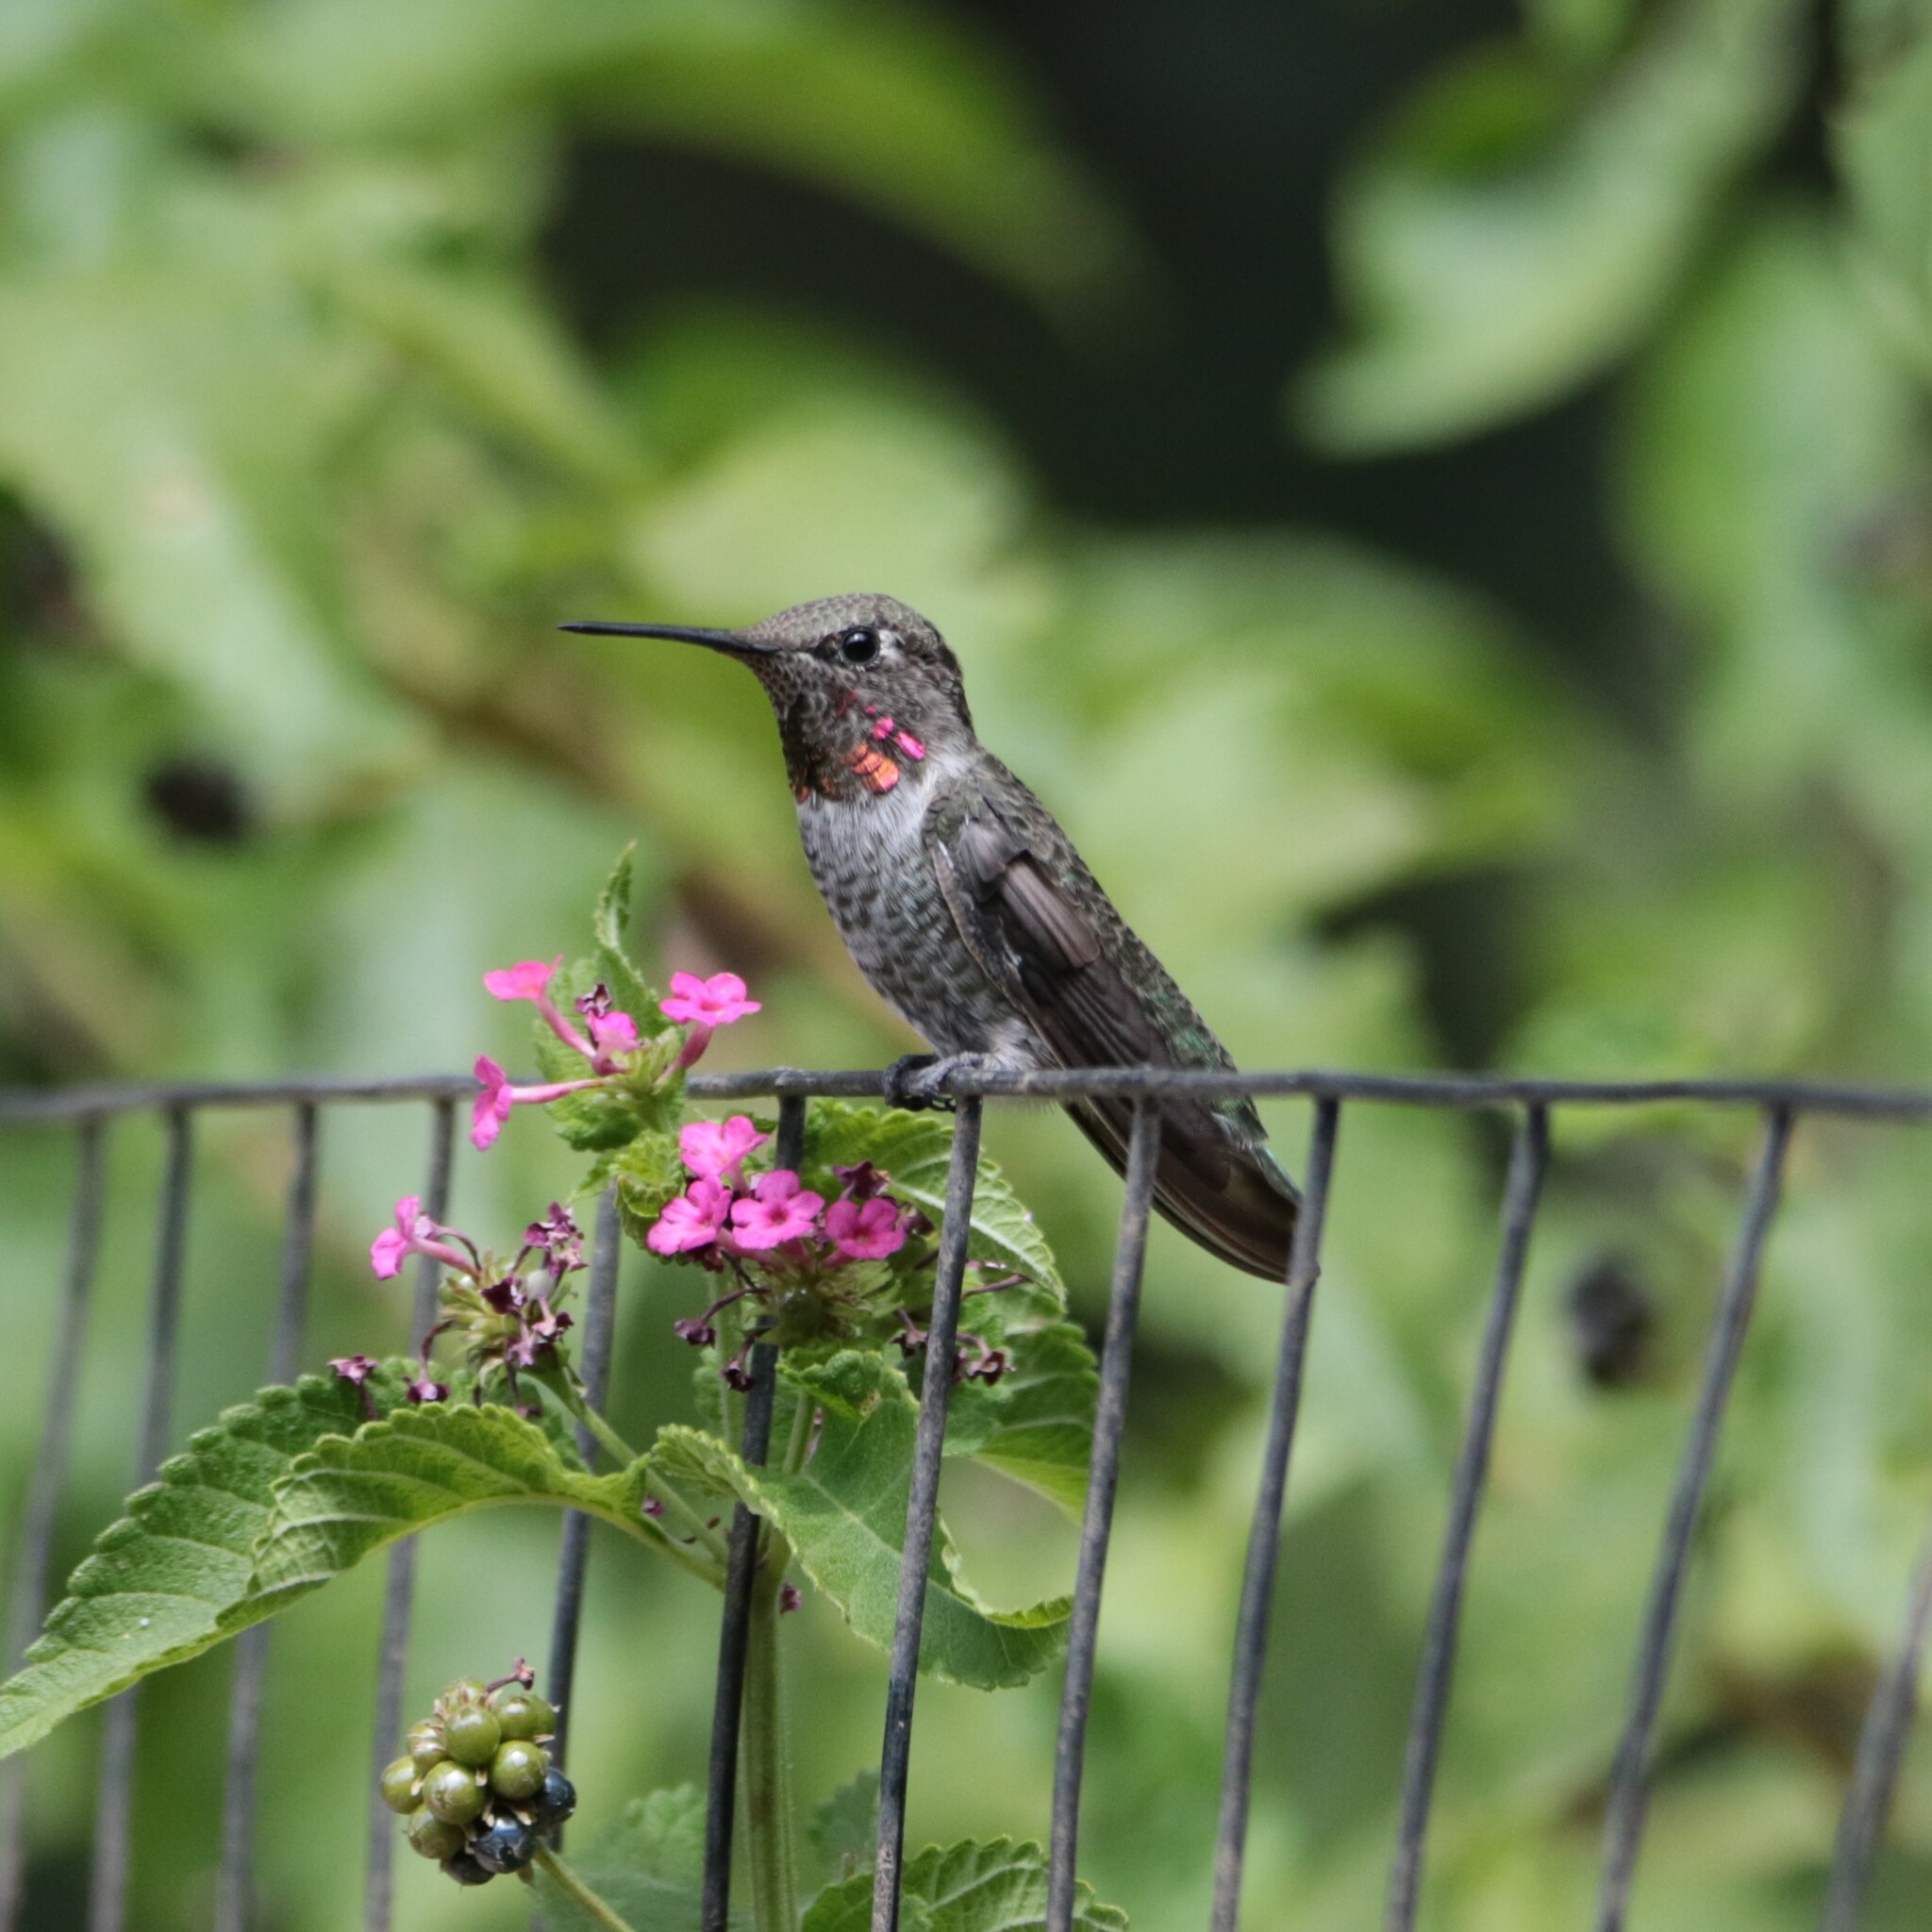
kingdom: Animalia
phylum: Chordata
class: Aves
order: Apodiformes
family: Trochilidae
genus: Calypte
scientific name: Calypte anna
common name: Anna's hummingbird
